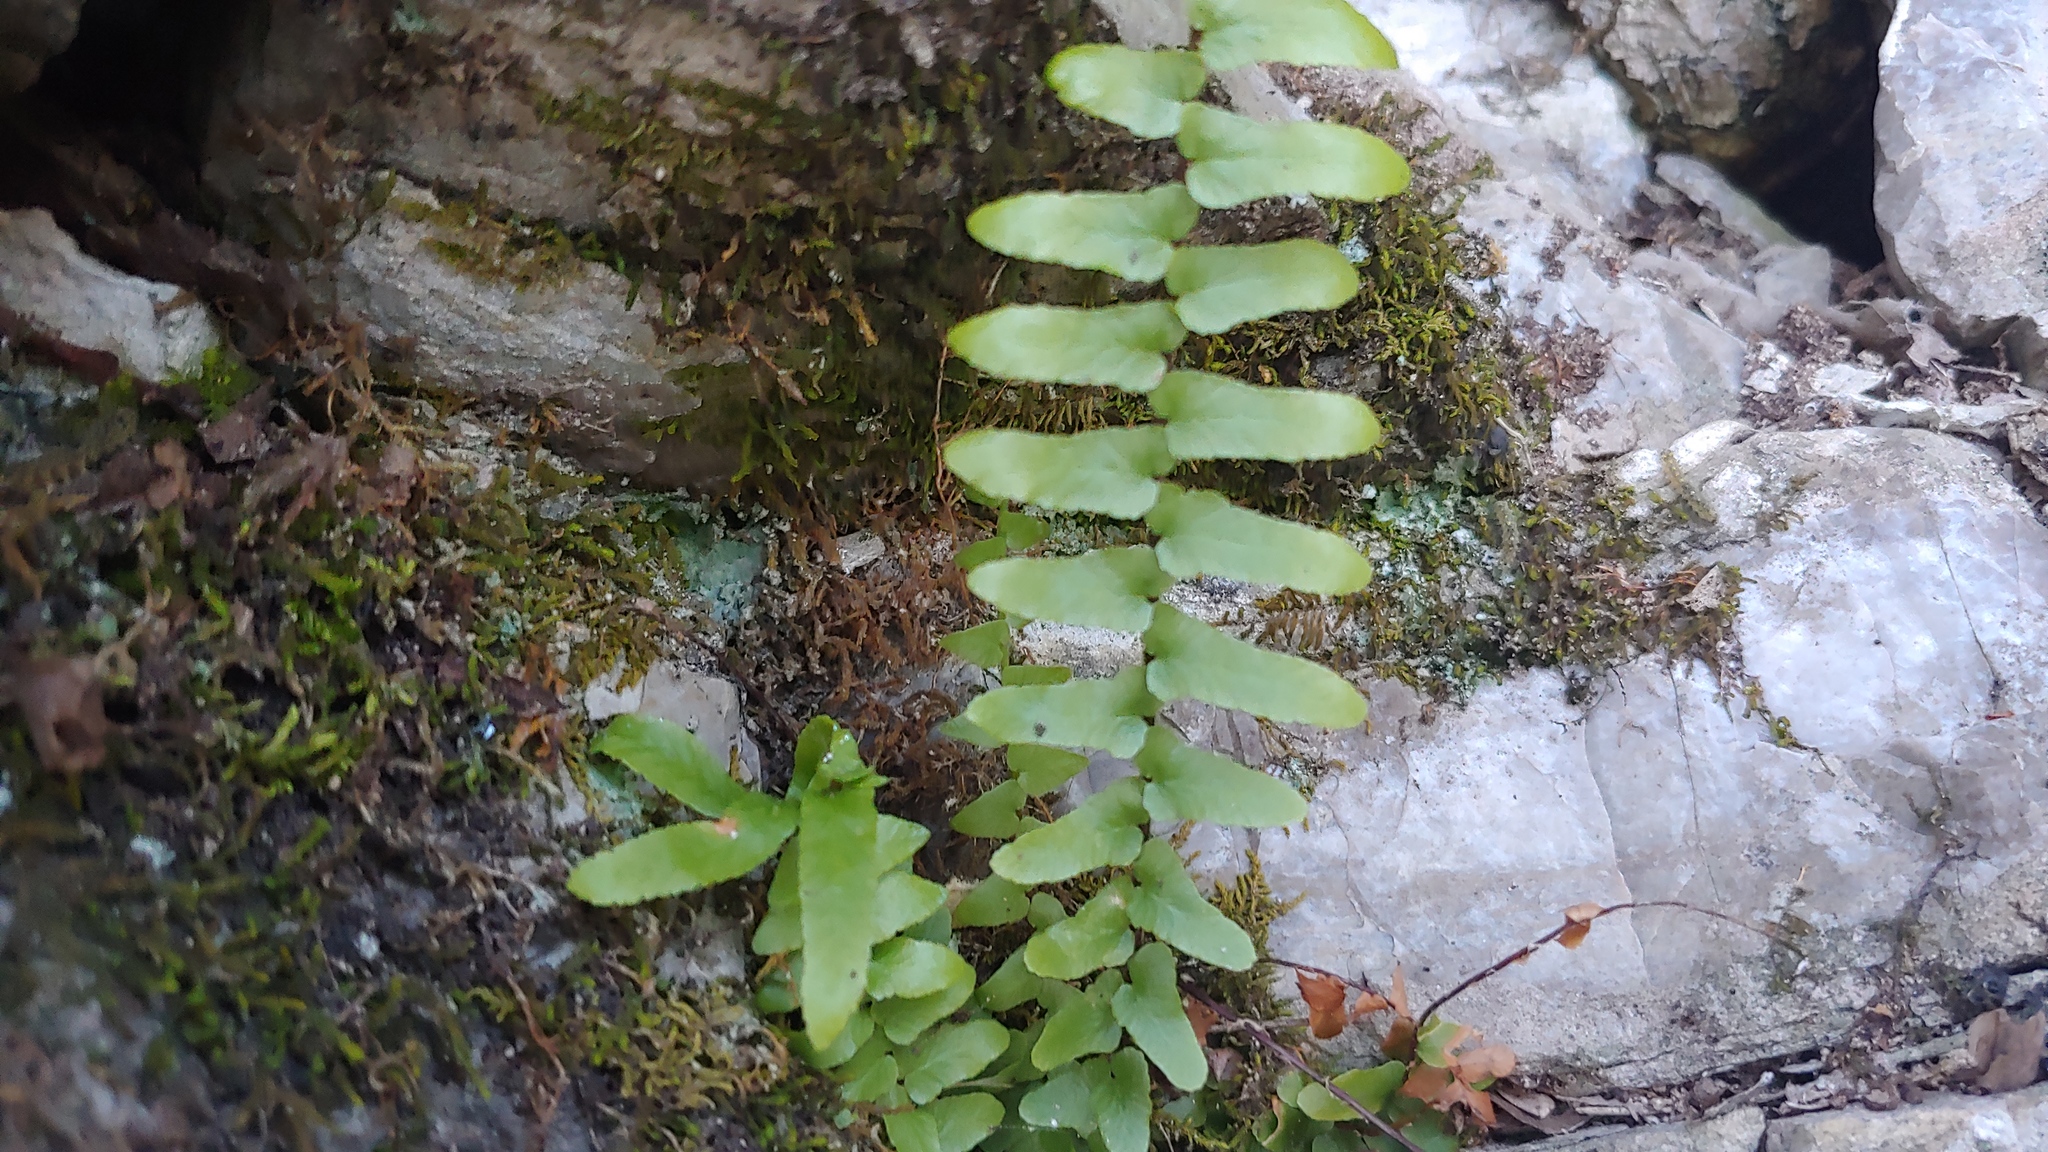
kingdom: Plantae
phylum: Tracheophyta
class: Polypodiopsida
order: Polypodiales
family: Aspleniaceae
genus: Asplenium
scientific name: Asplenium platyneuron
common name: Ebony spleenwort
